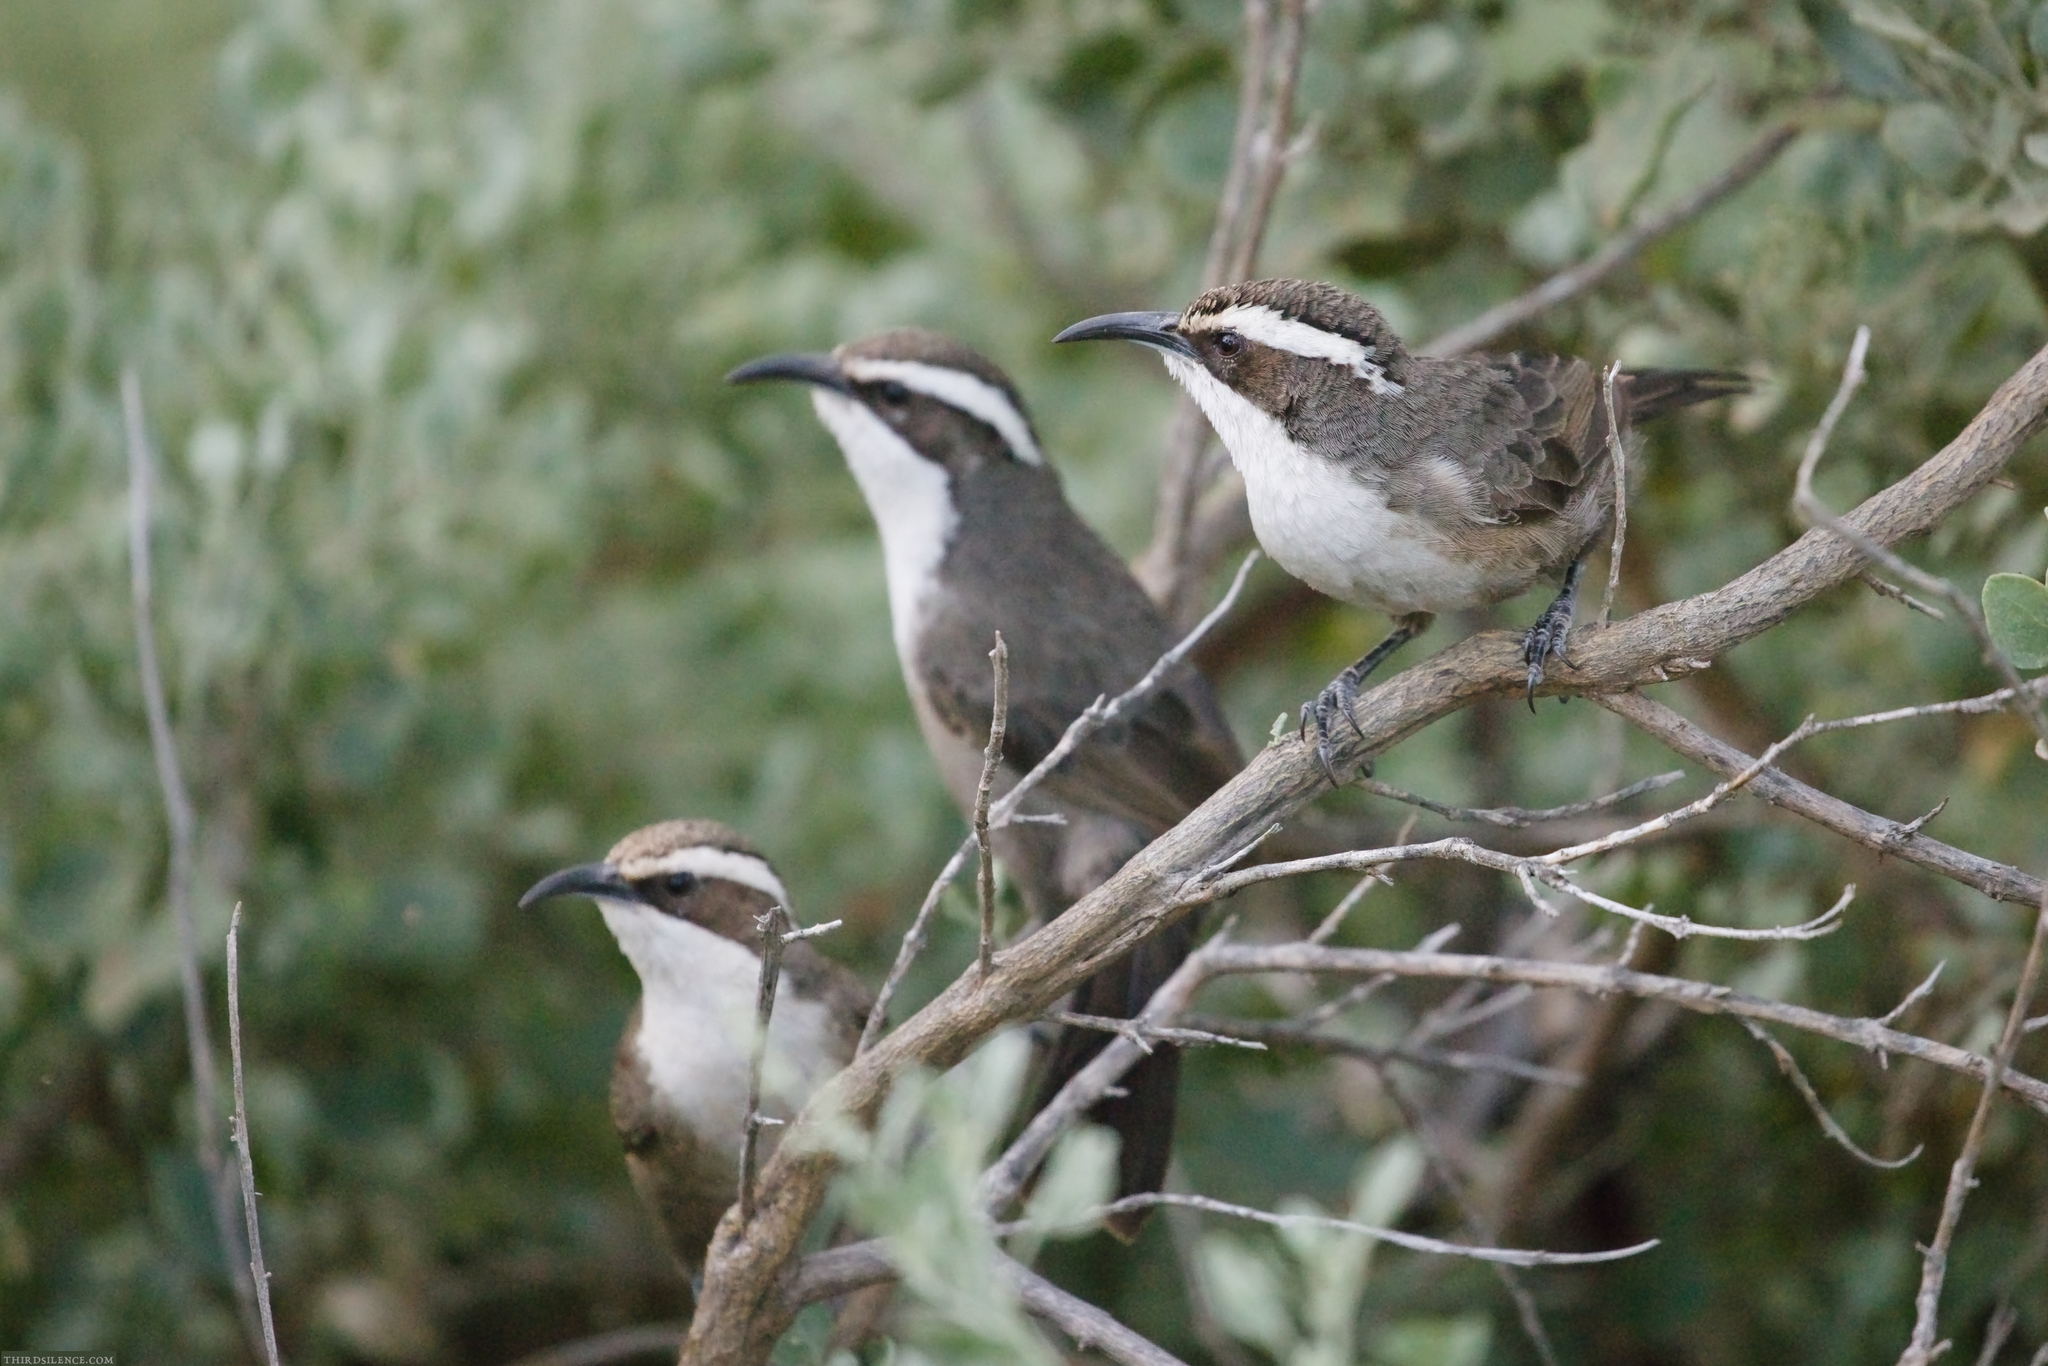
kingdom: Animalia
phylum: Chordata
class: Aves
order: Passeriformes
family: Pomatostomidae
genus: Pomatostomus
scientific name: Pomatostomus superciliosus
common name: White-browed babbler
